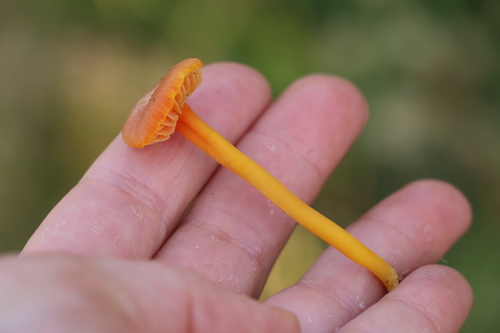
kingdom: Fungi
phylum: Basidiomycota
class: Agaricomycetes
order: Agaricales
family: Hygrophoraceae
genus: Hygrocybe
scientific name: Hygrocybe
